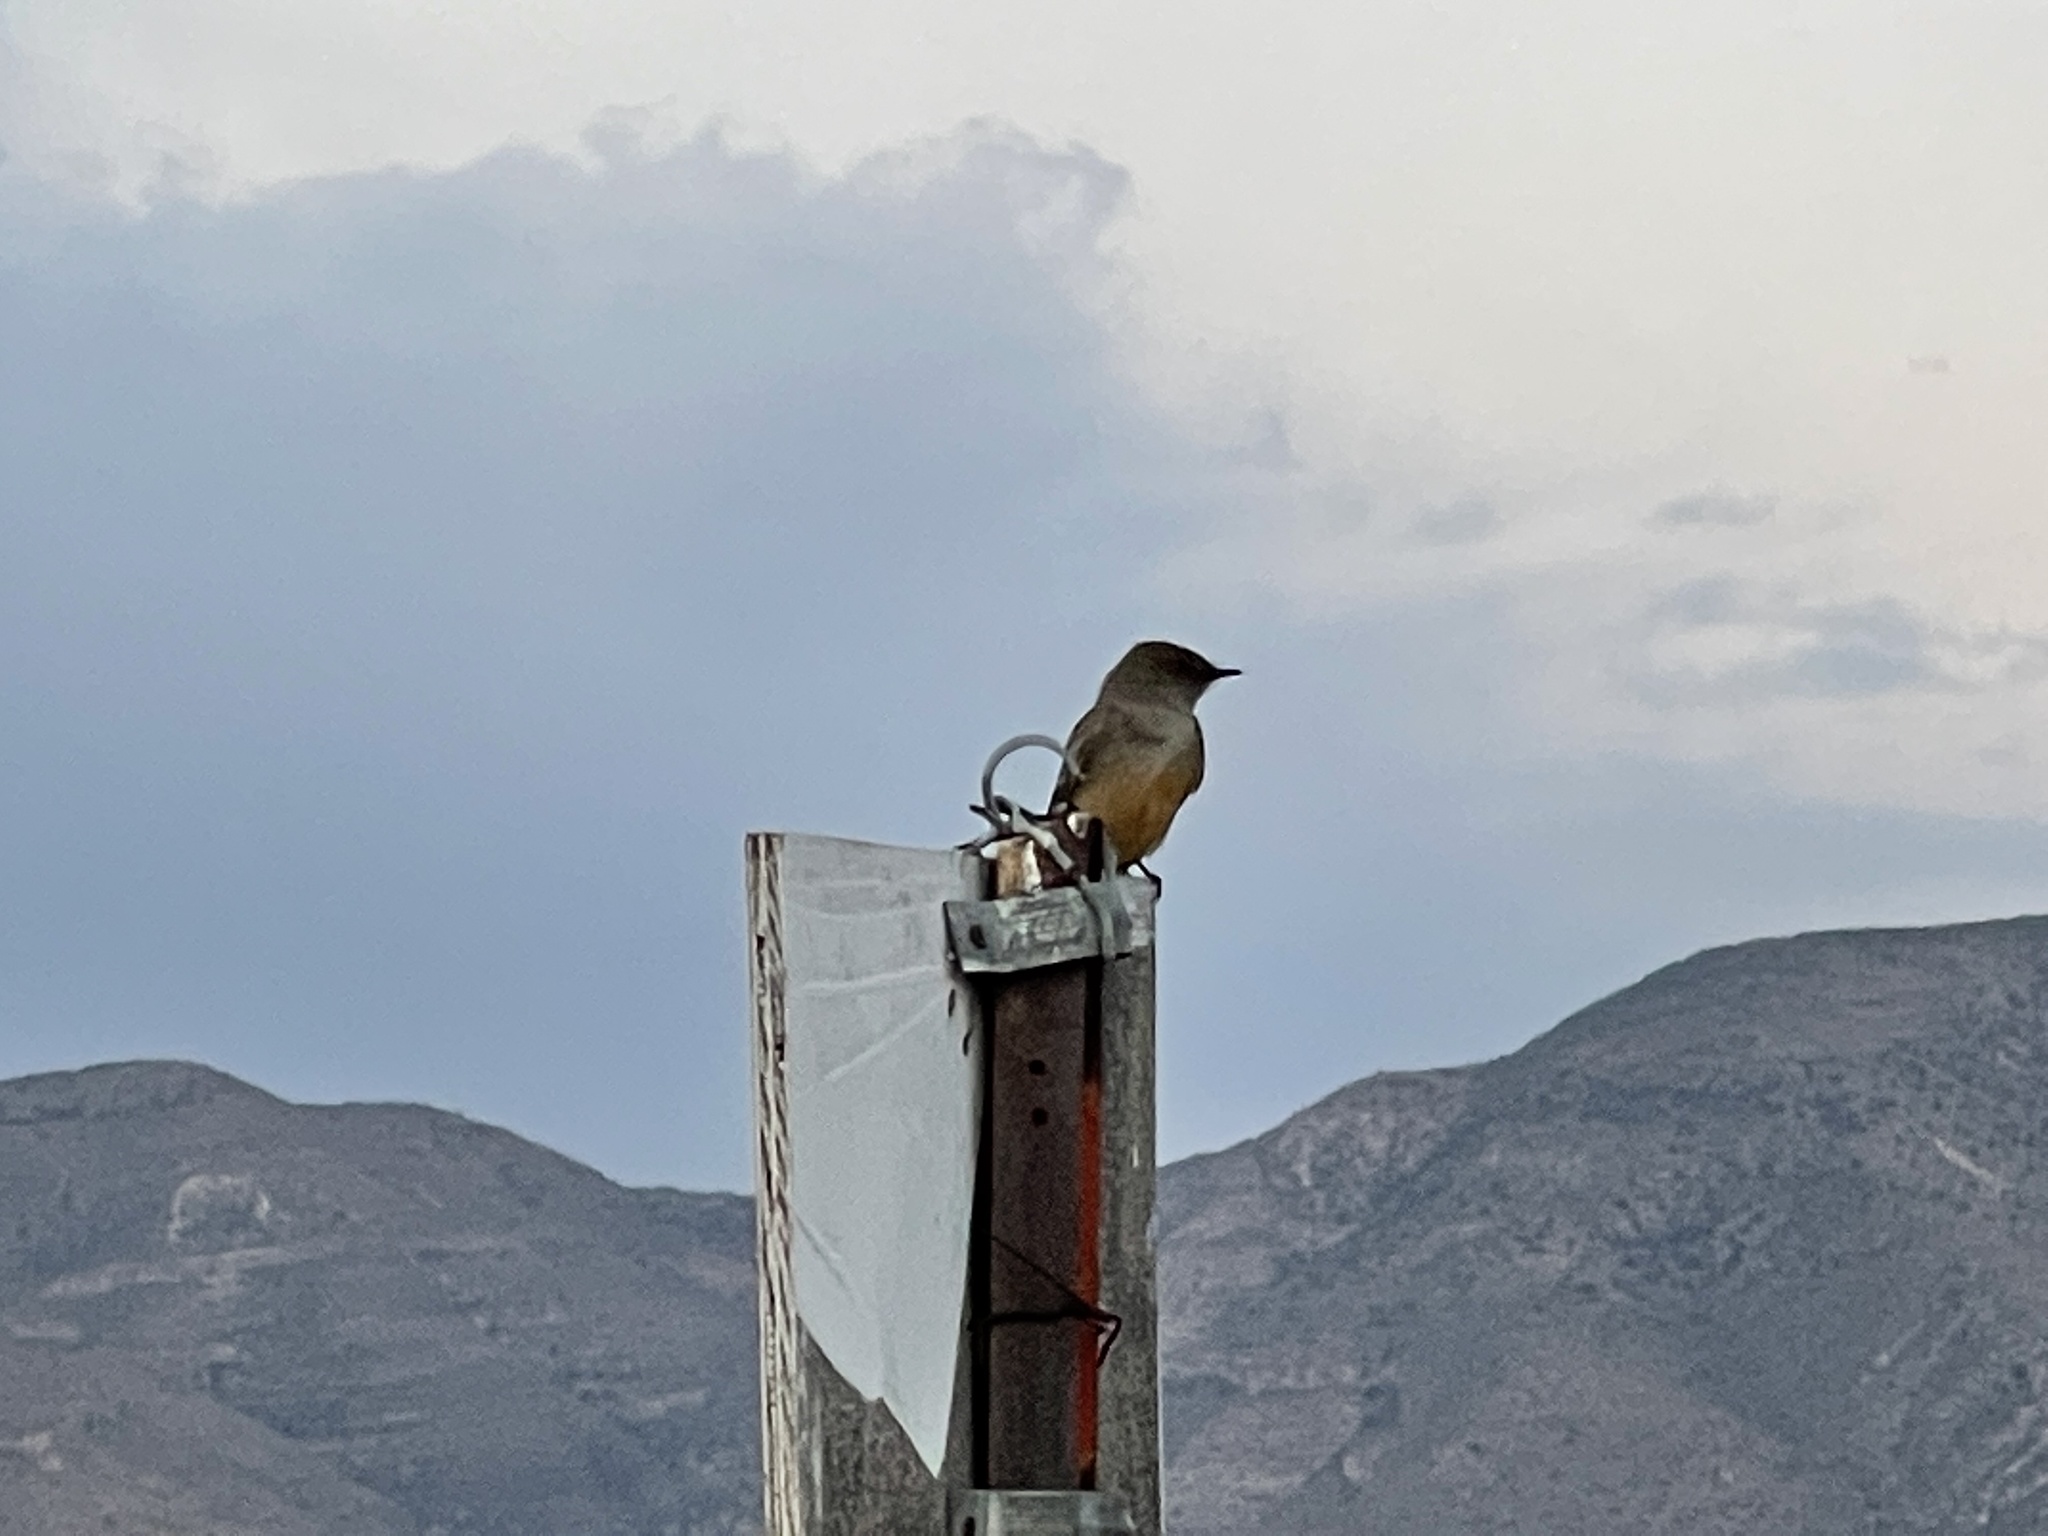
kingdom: Animalia
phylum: Chordata
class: Aves
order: Passeriformes
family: Tyrannidae
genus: Sayornis
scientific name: Sayornis saya
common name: Say's phoebe
